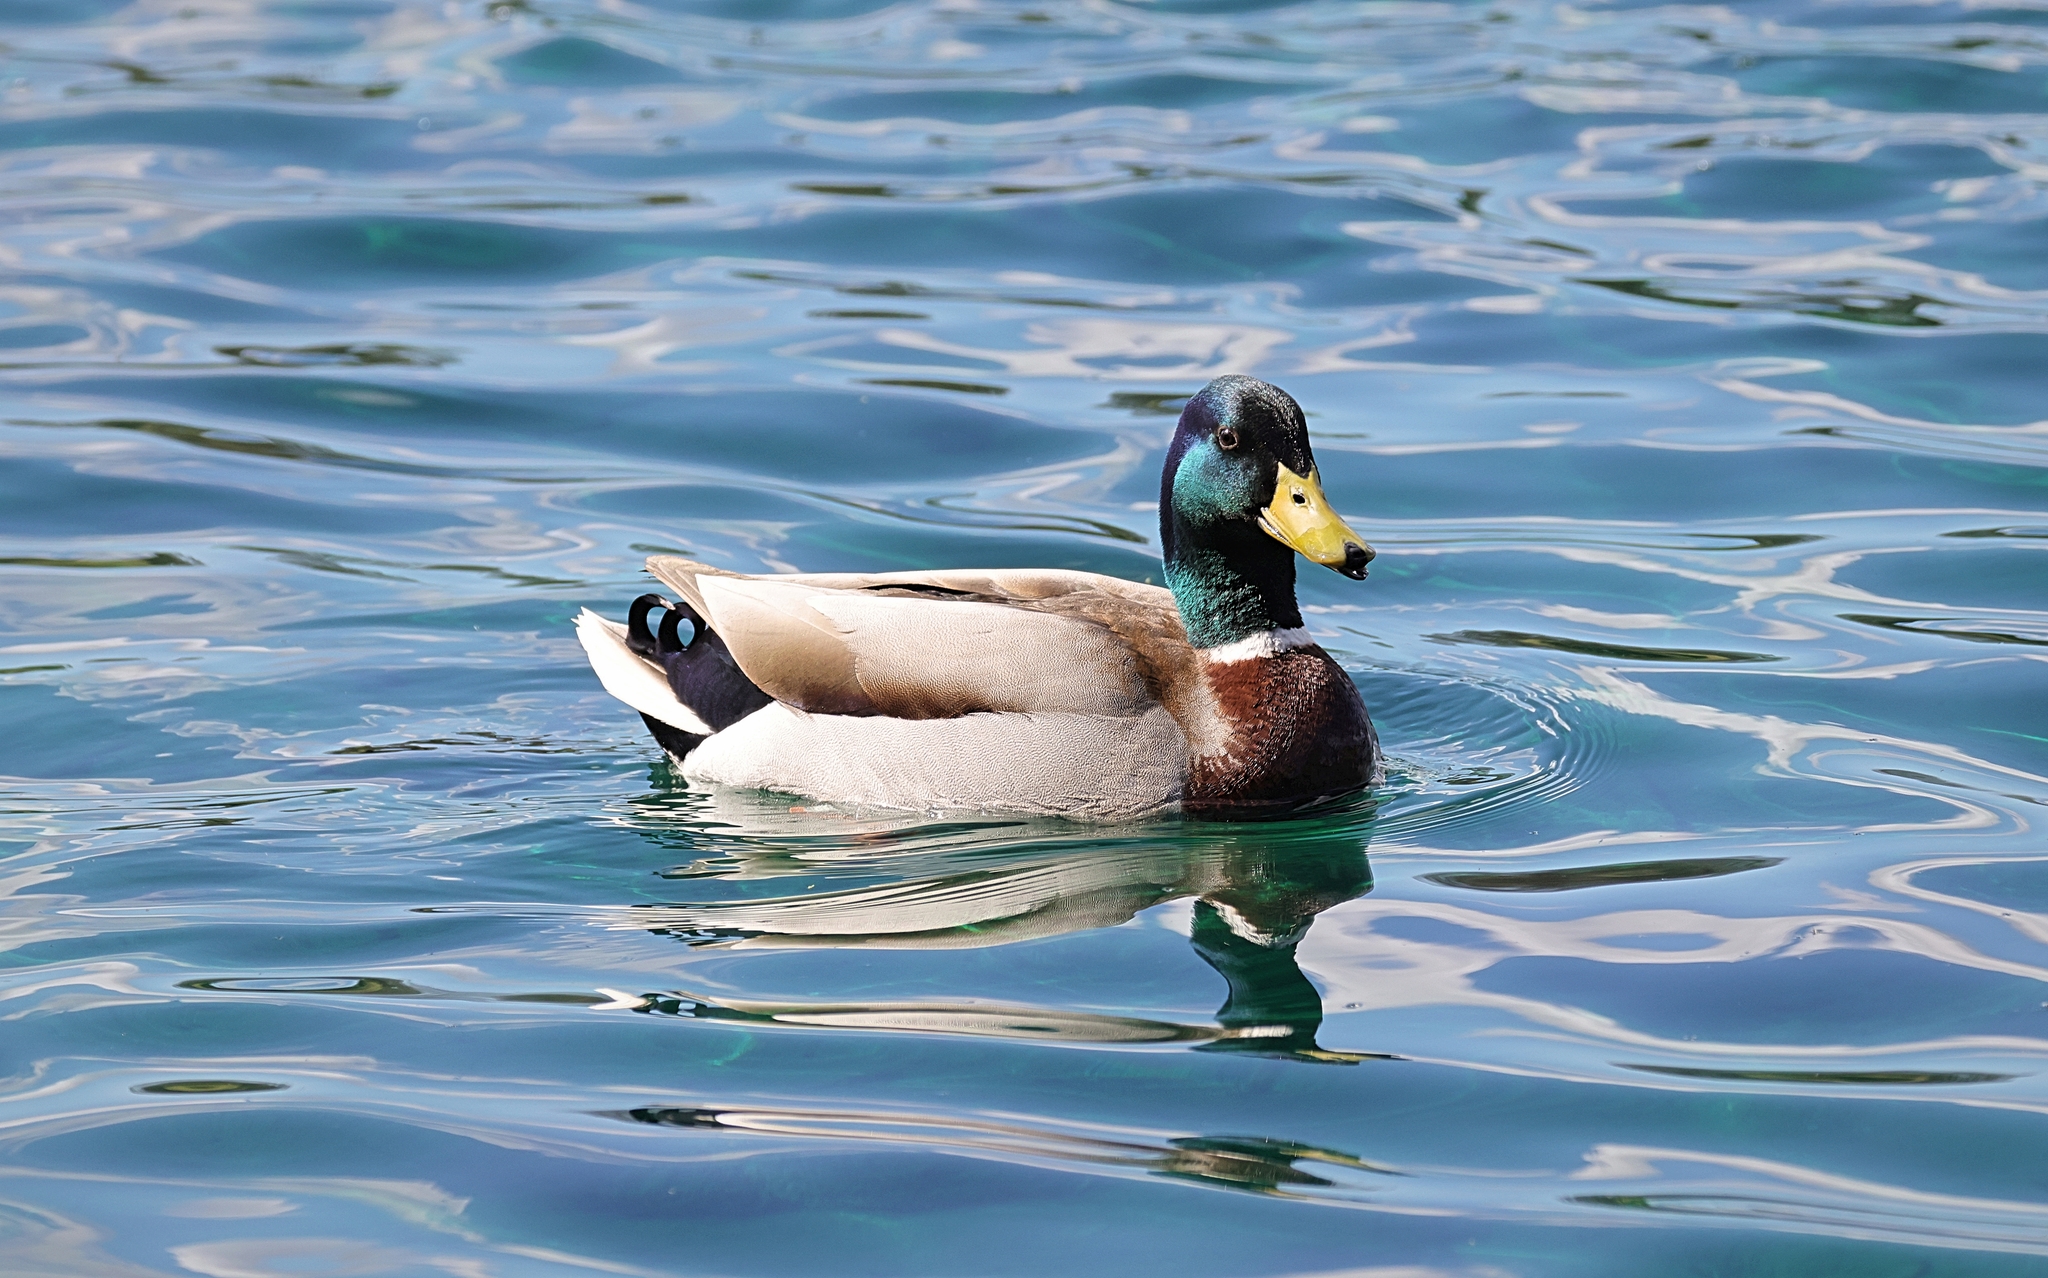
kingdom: Animalia
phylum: Chordata
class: Aves
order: Anseriformes
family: Anatidae
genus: Anas
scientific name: Anas platyrhynchos
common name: Mallard
